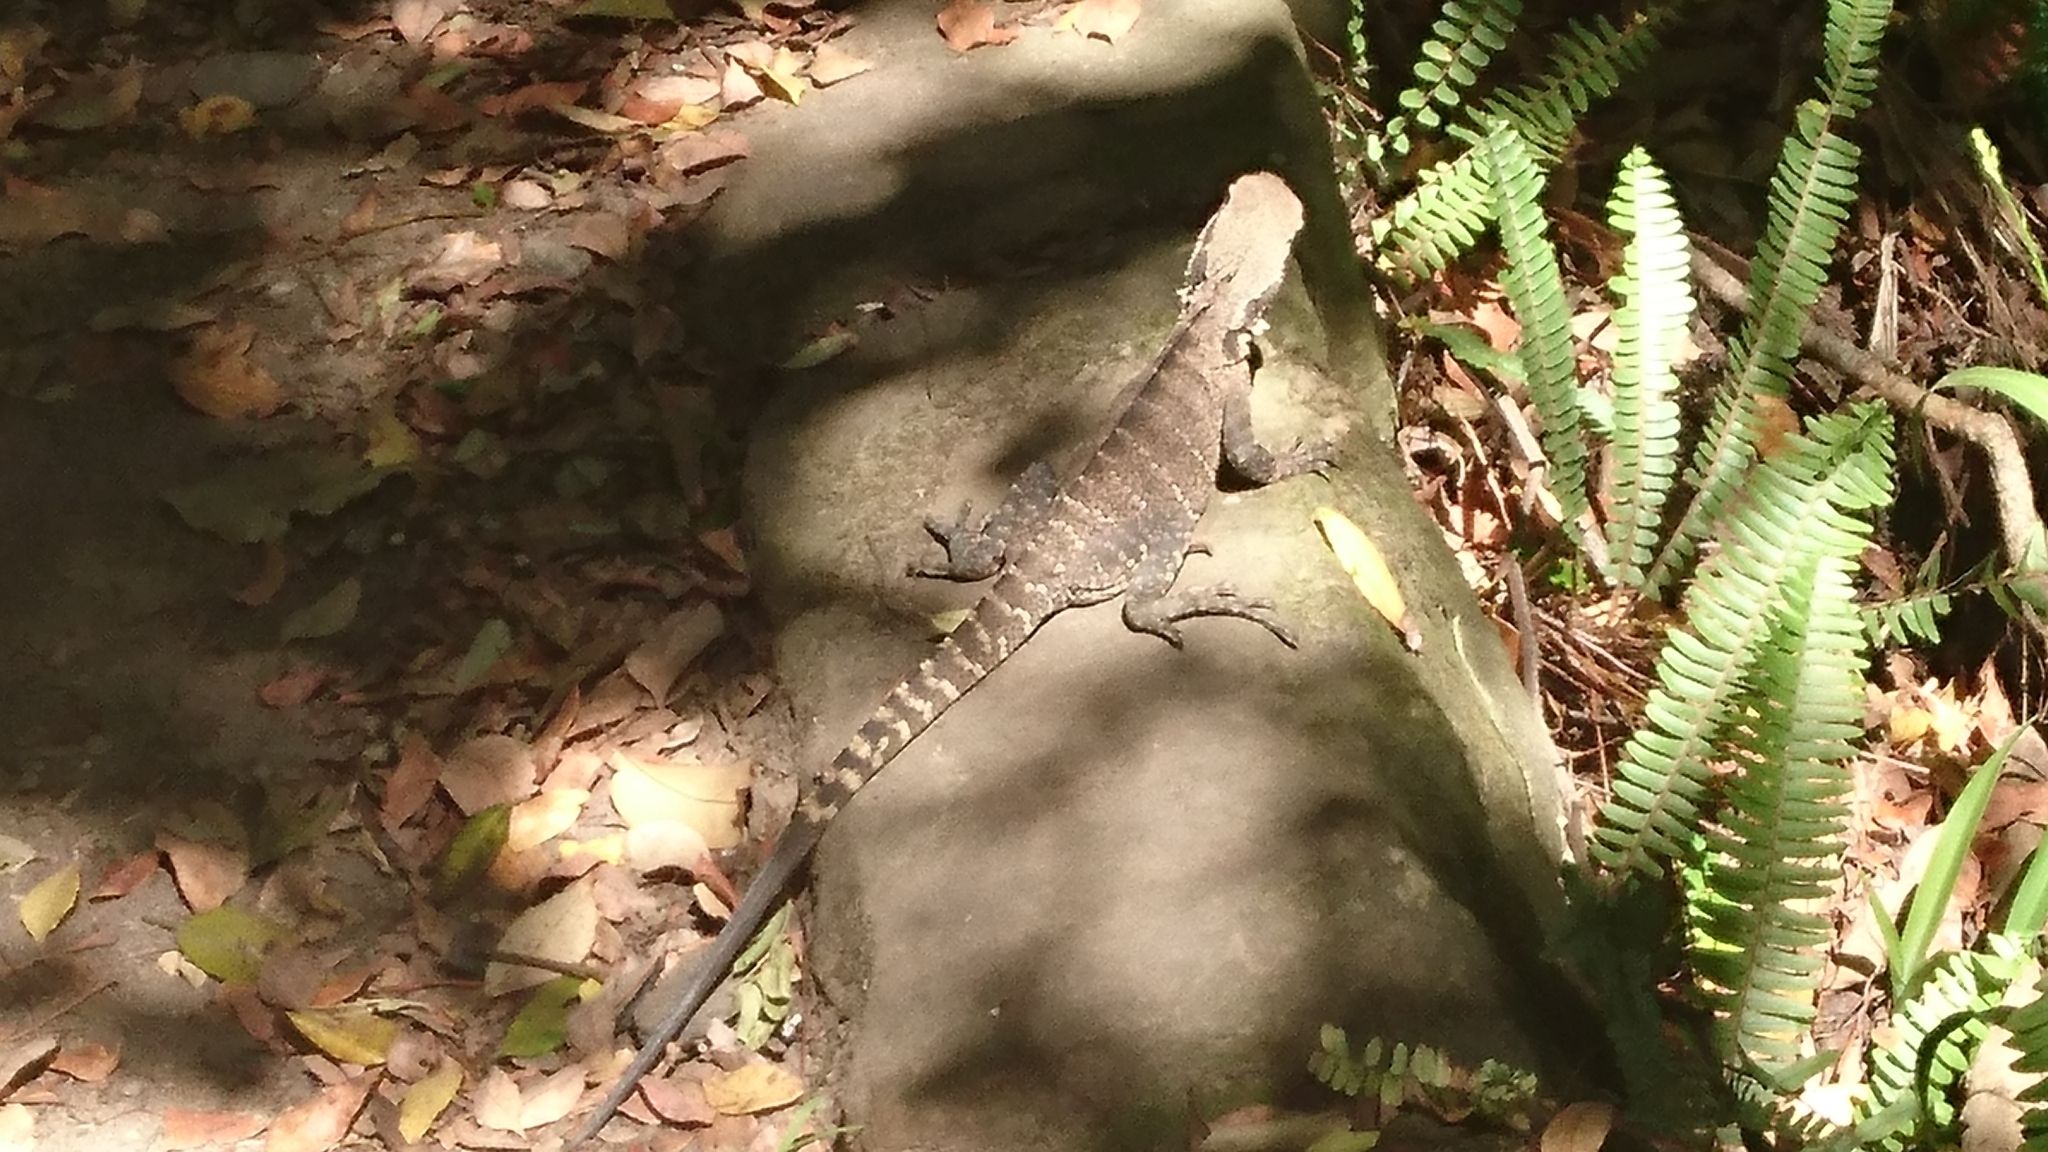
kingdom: Animalia
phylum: Chordata
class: Squamata
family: Agamidae
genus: Intellagama
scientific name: Intellagama lesueurii
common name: Eastern water dragon
